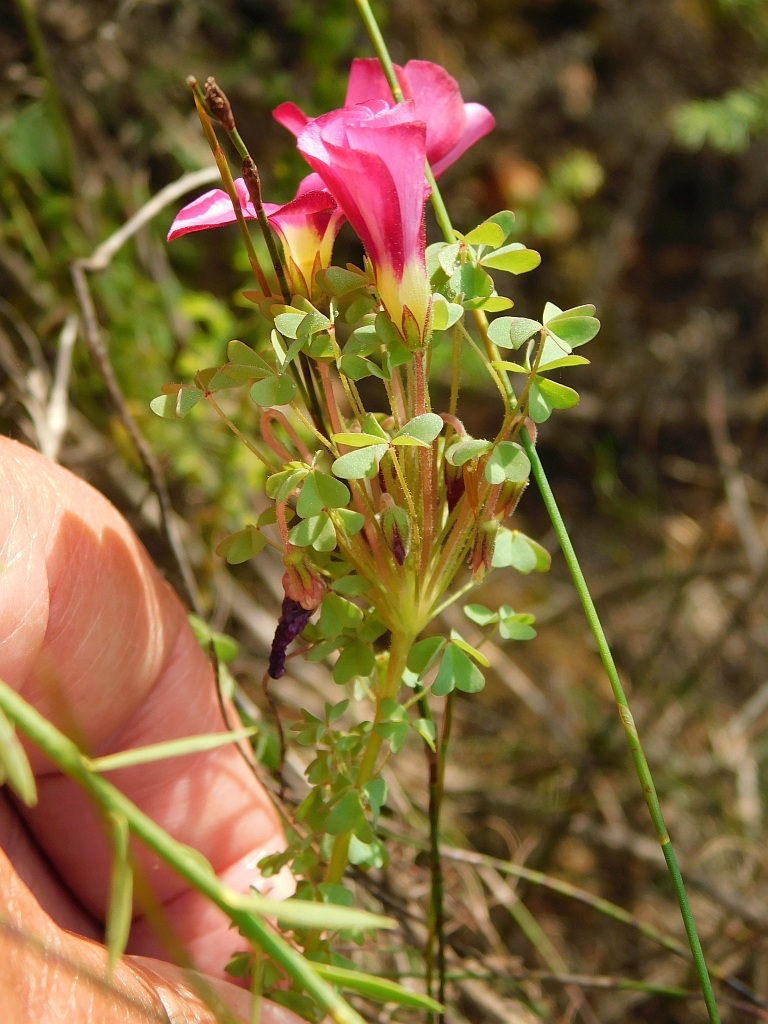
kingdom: Plantae
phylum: Tracheophyta
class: Magnoliopsida
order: Oxalidales
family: Oxalidaceae
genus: Oxalis
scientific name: Oxalis heterophylla
